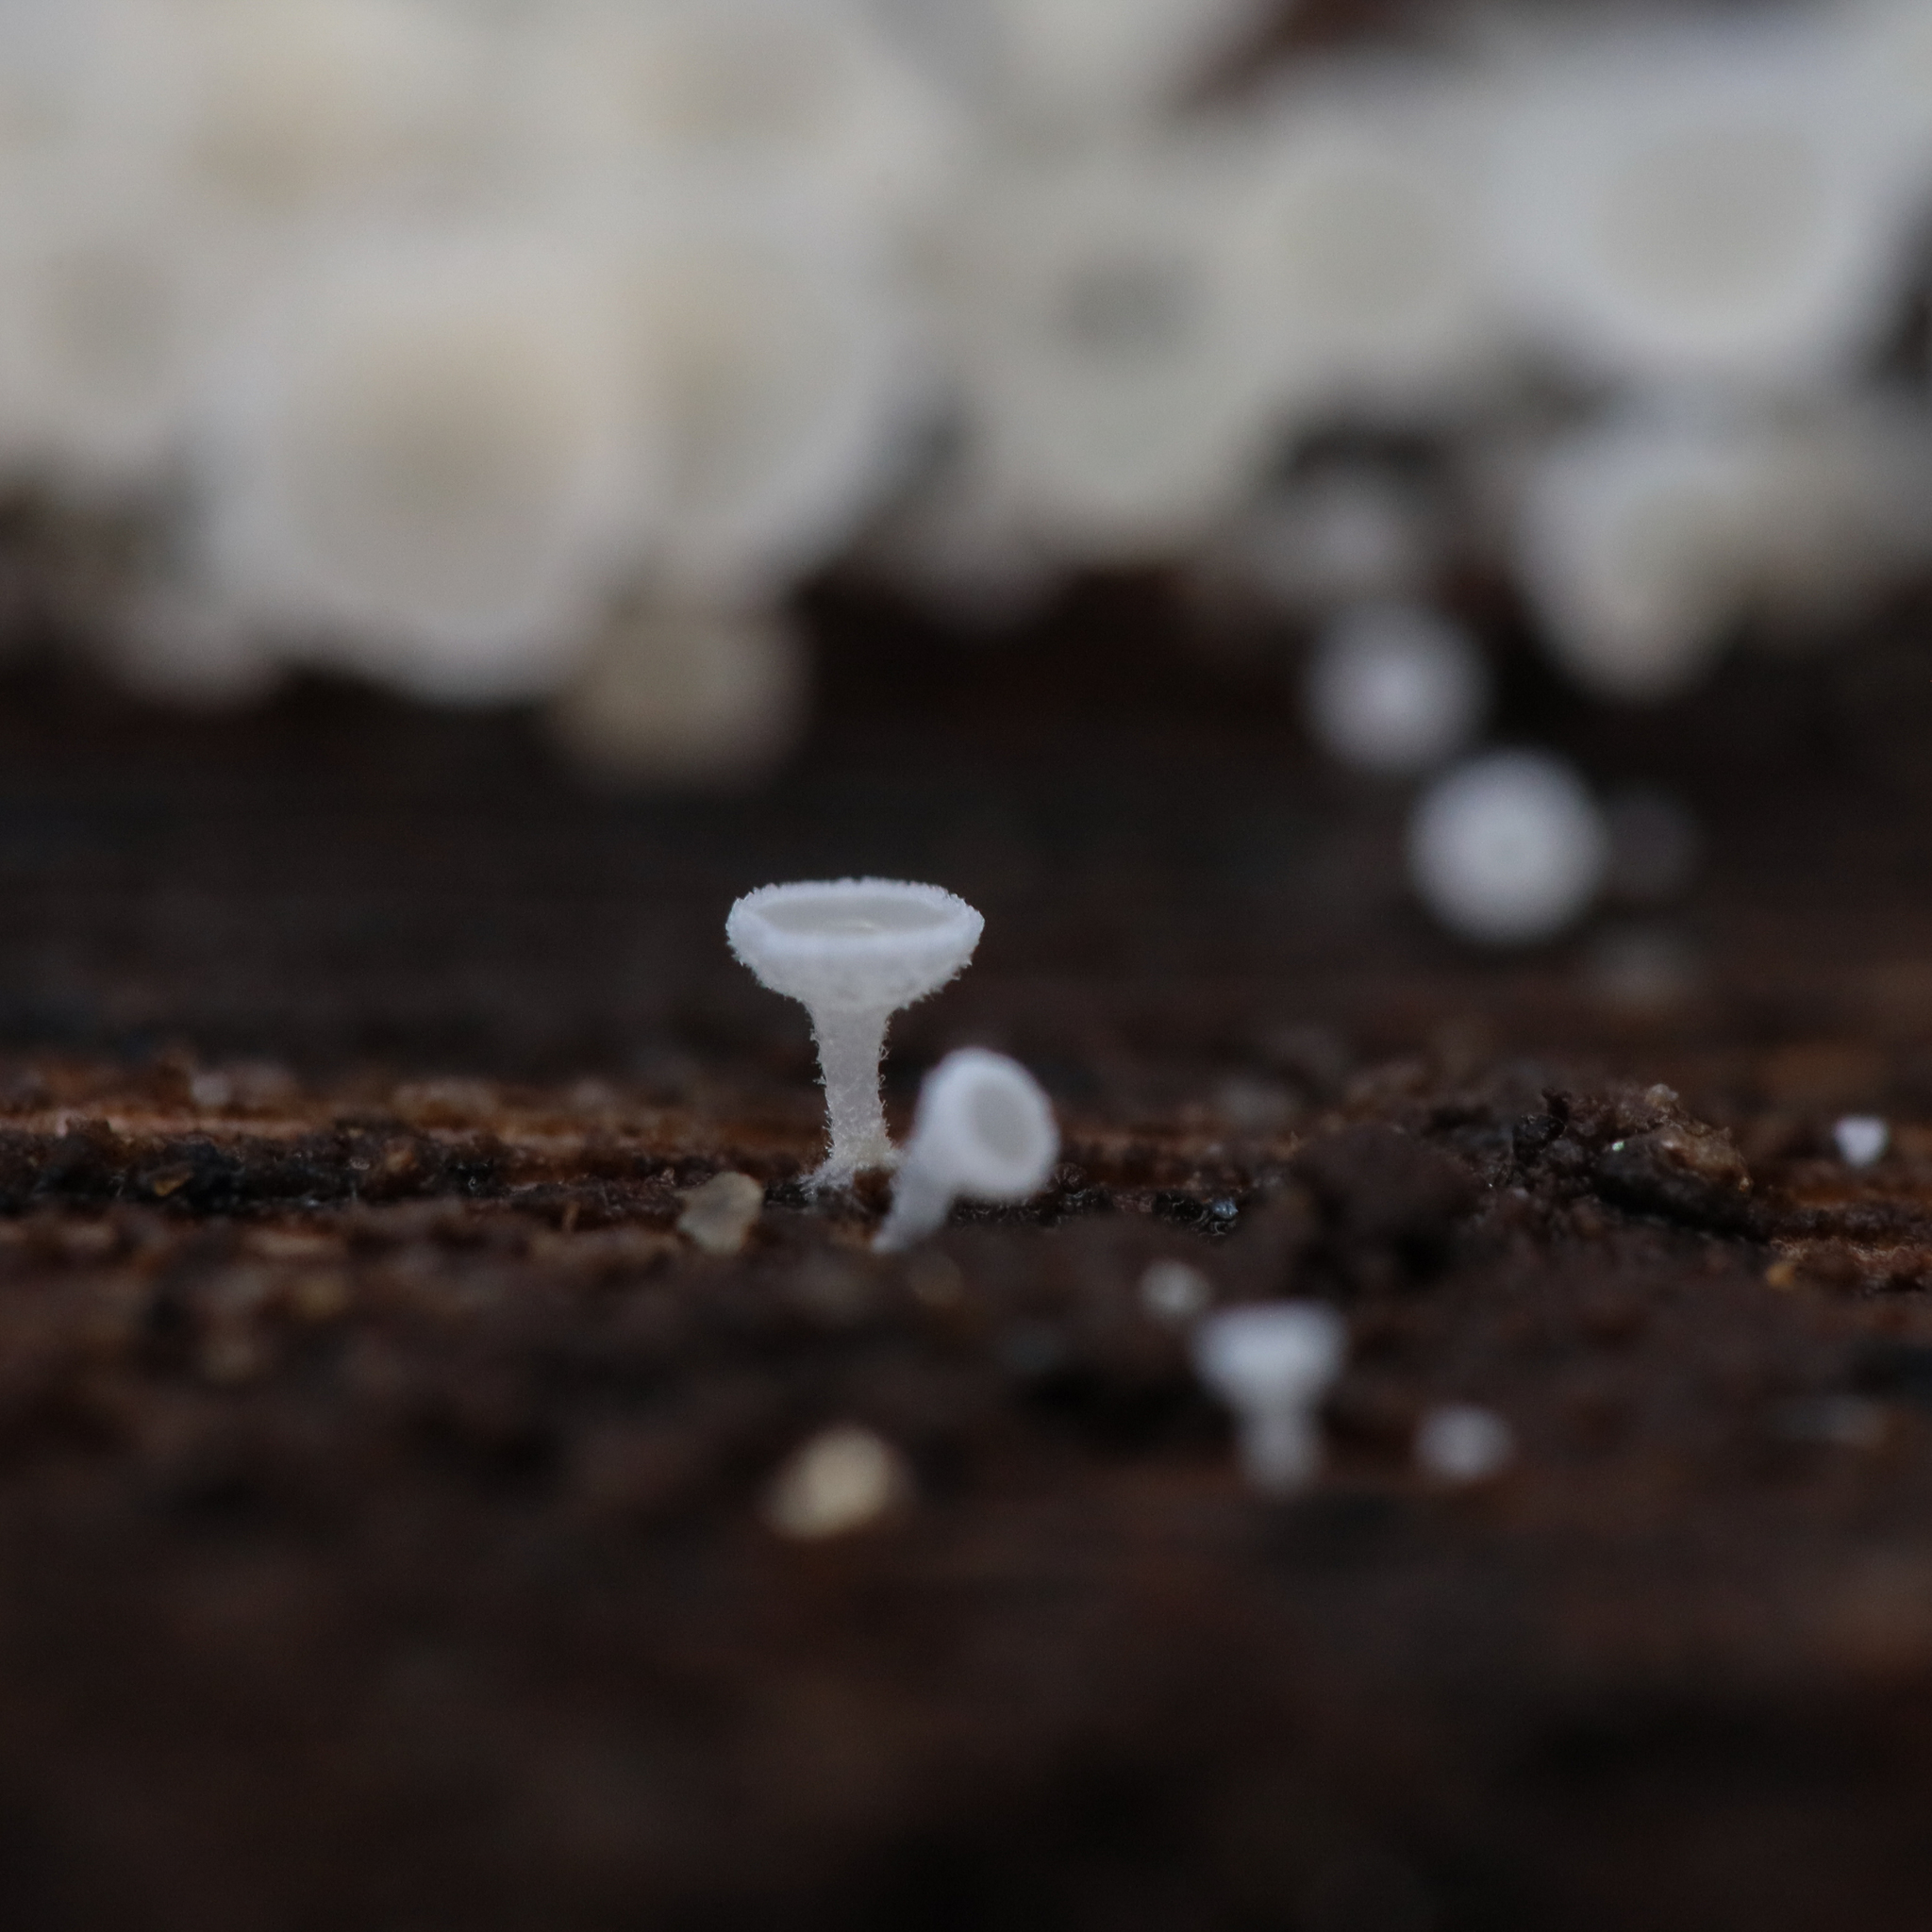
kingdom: Fungi
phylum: Ascomycota
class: Leotiomycetes
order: Helotiales
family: Lachnaceae
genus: Lachnum
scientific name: Lachnum virgineum
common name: Snowy disco
